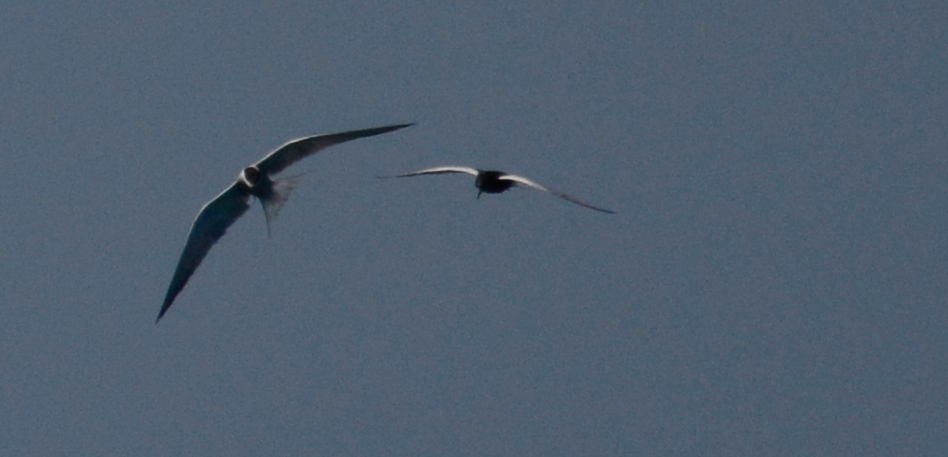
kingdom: Animalia
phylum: Chordata
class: Aves
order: Charadriiformes
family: Laridae
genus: Chlidonias
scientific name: Chlidonias leucopterus
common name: White-winged tern
